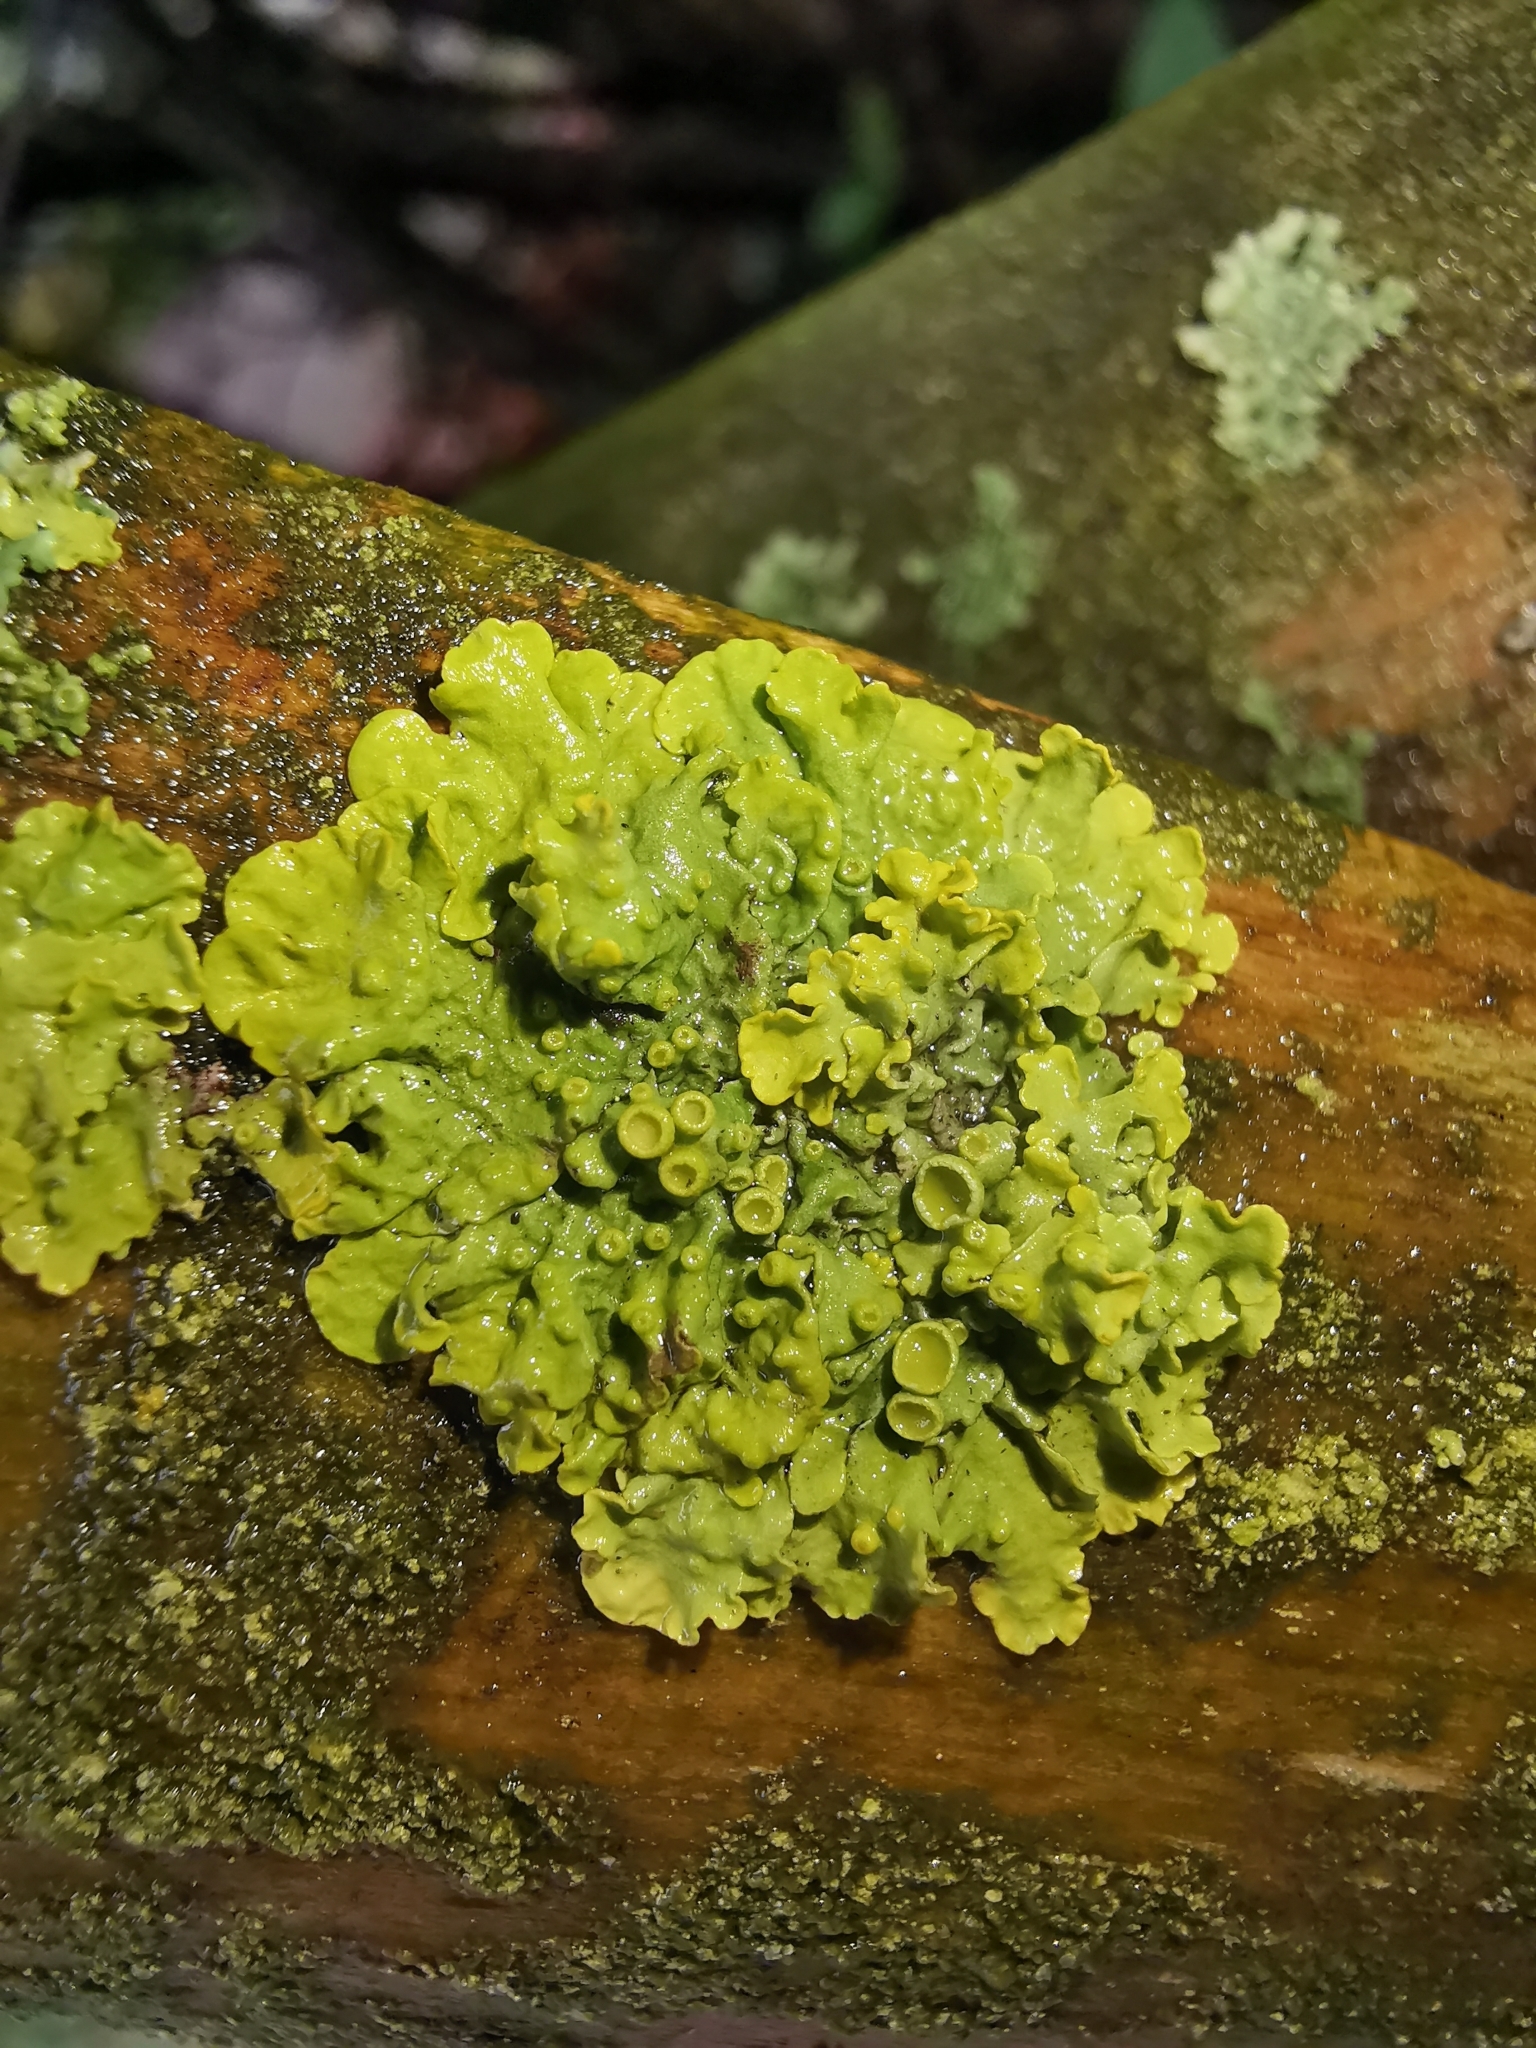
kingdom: Fungi
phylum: Ascomycota
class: Lecanoromycetes
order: Teloschistales
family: Teloschistaceae
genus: Xanthoria
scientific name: Xanthoria parietina
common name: Common orange lichen
